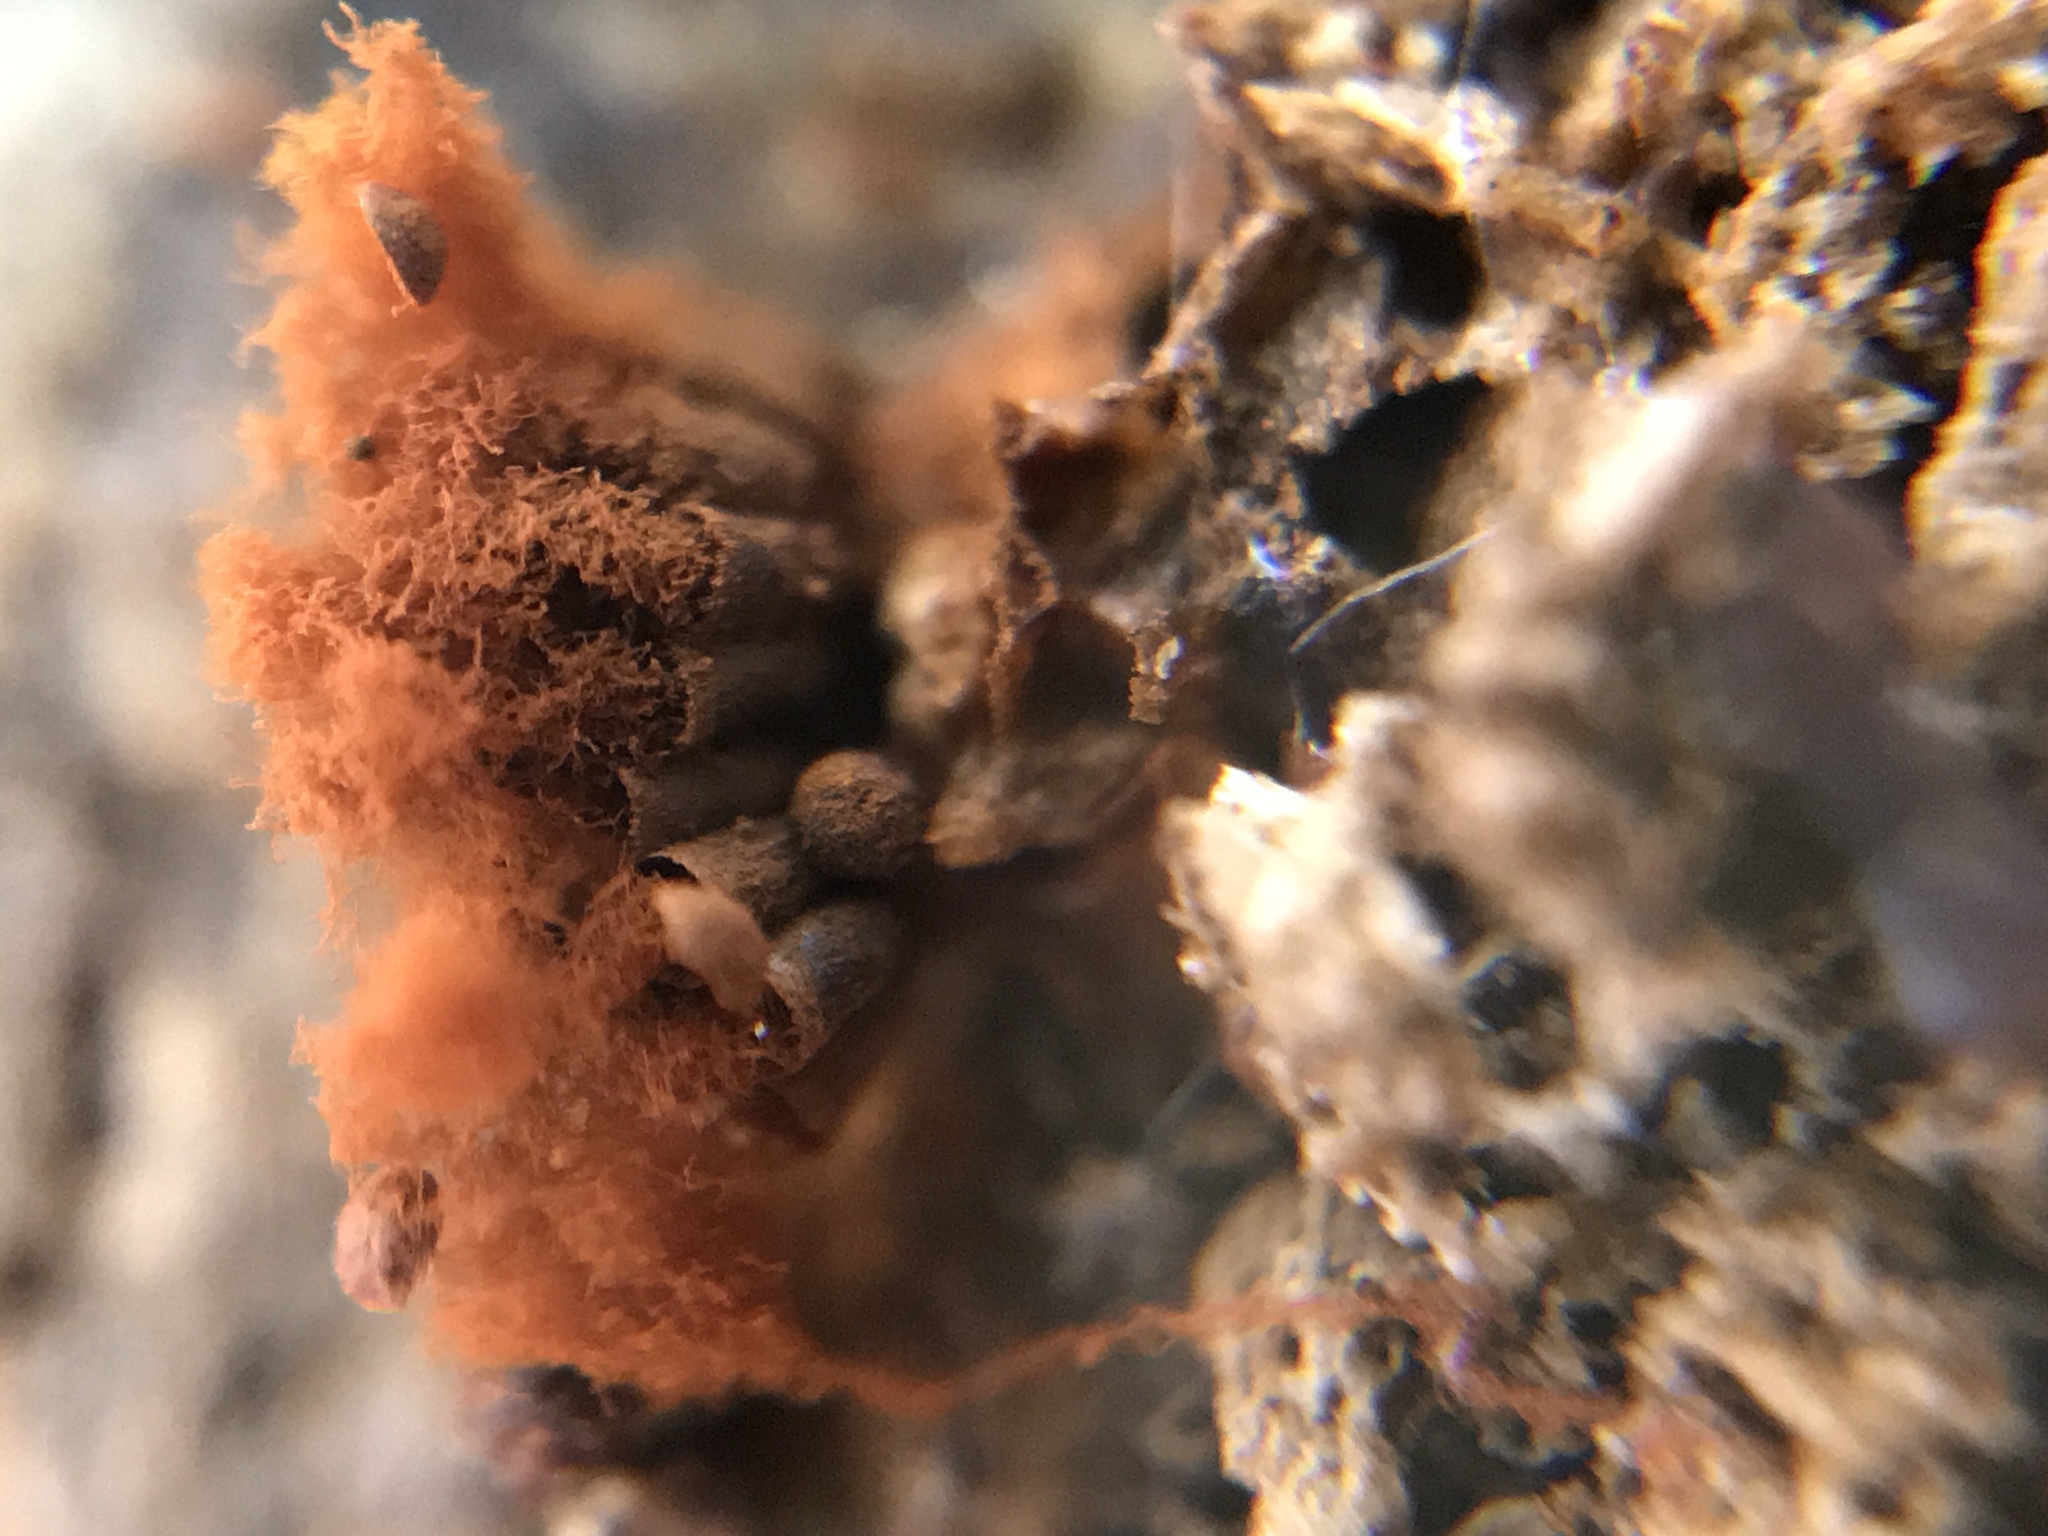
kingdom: Protozoa
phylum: Mycetozoa
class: Myxomycetes
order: Trichiales
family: Trichiaceae
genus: Metatrichia
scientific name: Metatrichia vesparia
